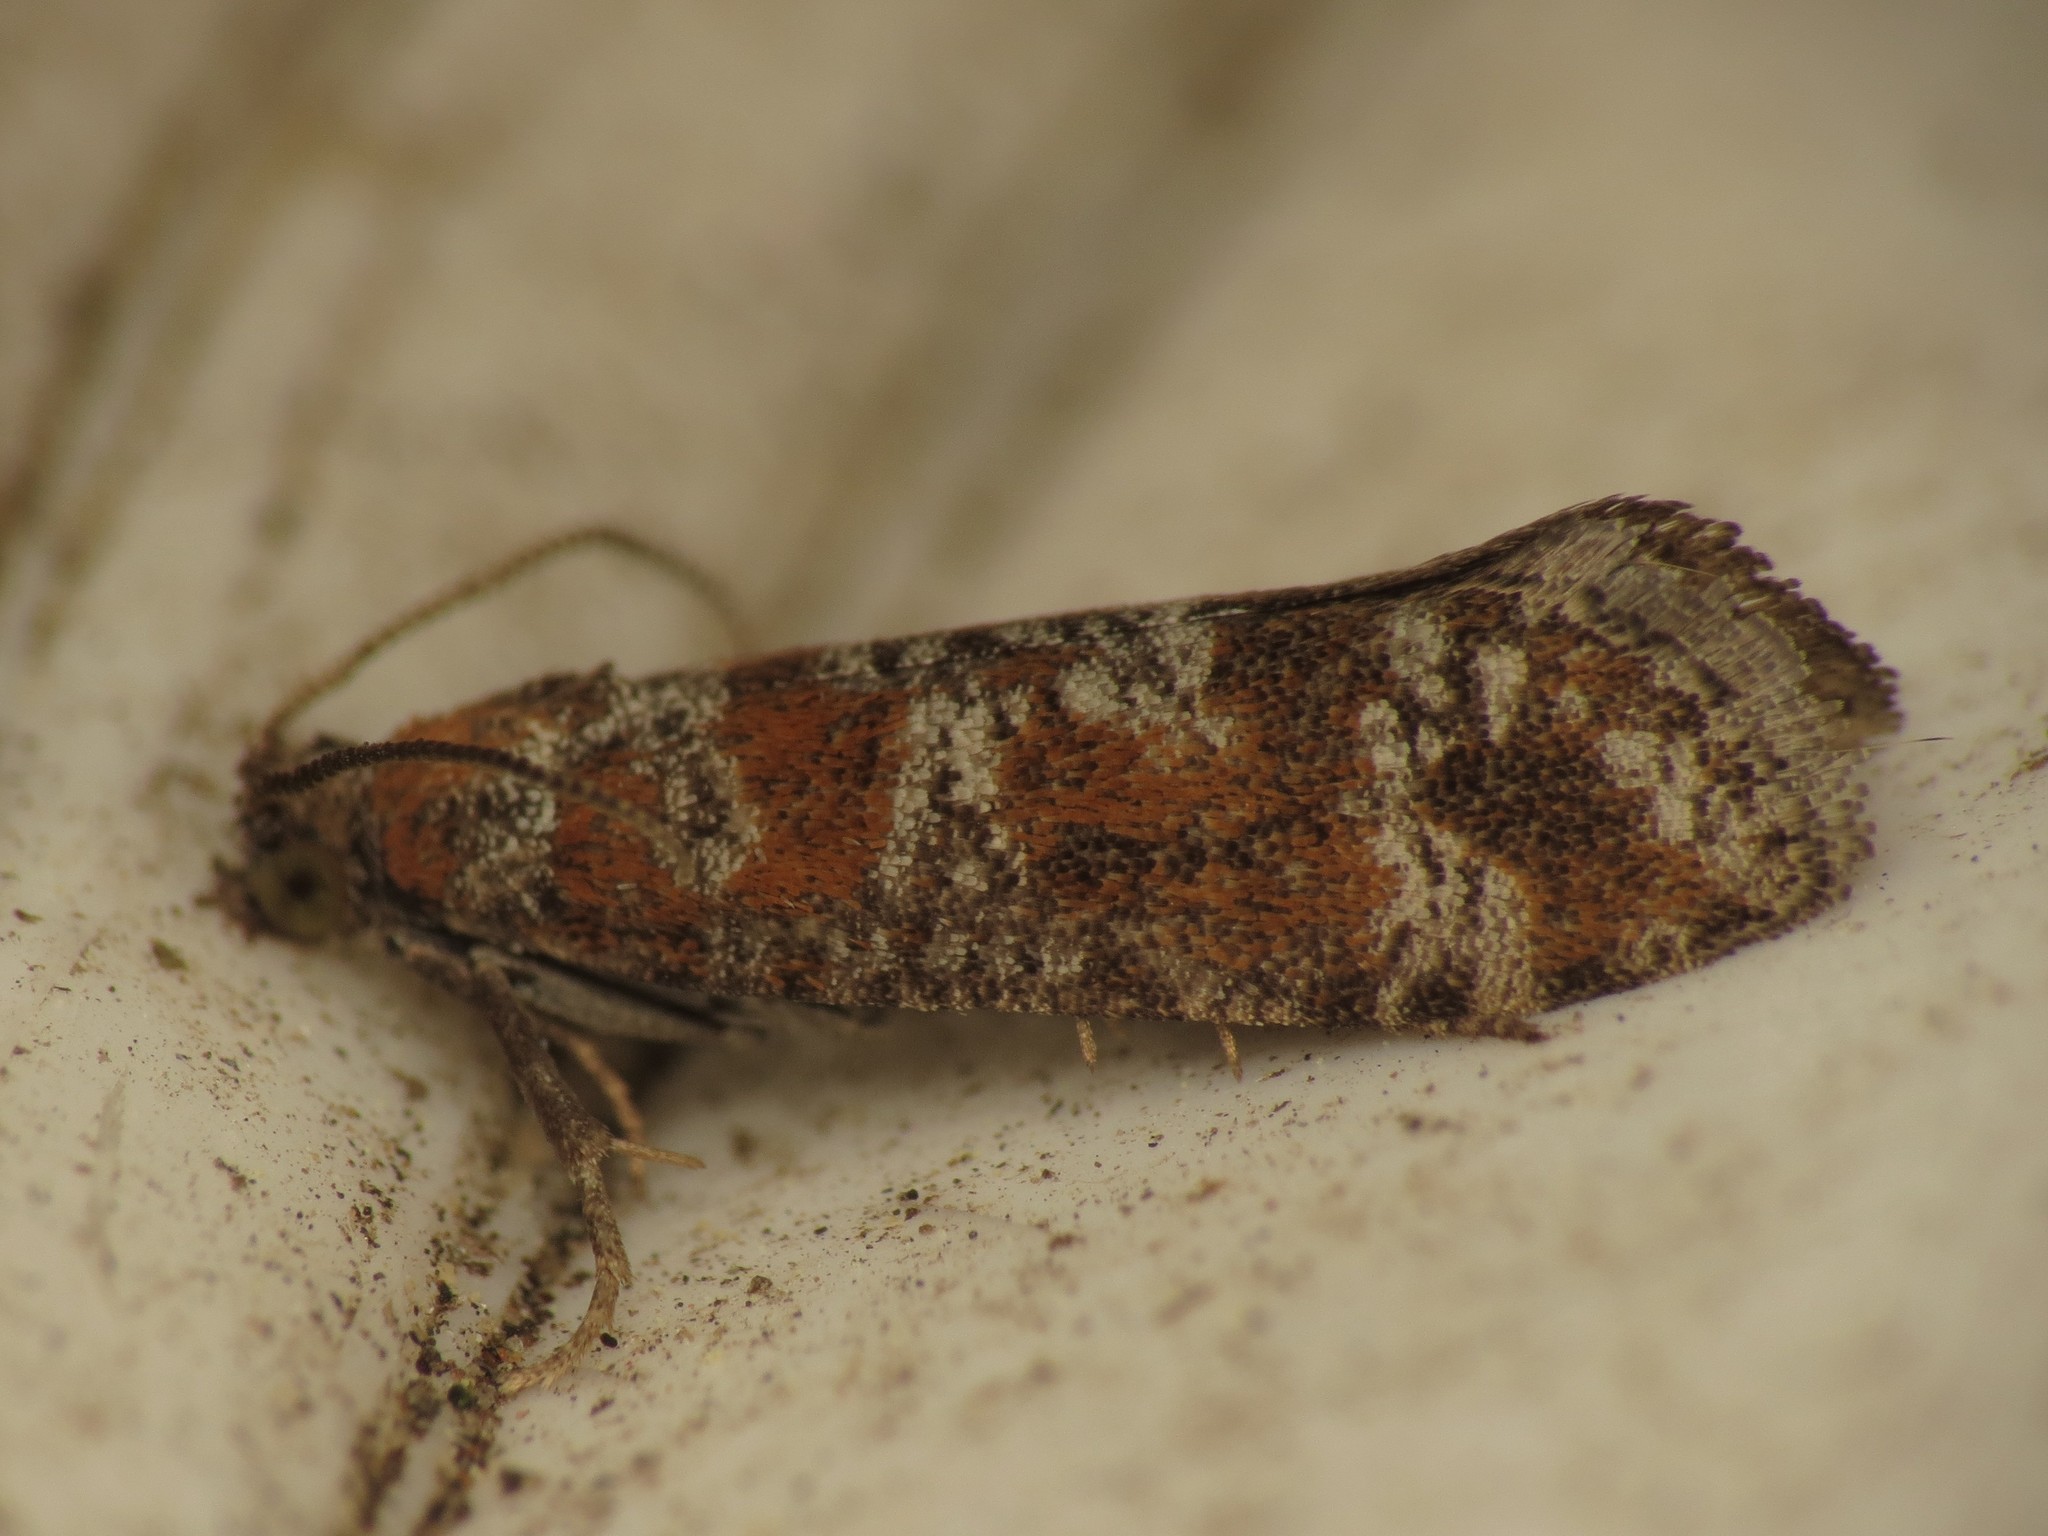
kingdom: Animalia
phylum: Arthropoda
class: Insecta
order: Lepidoptera
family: Tortricidae
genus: Rhyacionia
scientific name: Rhyacionia pinivorana
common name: Spotted shoot moth
